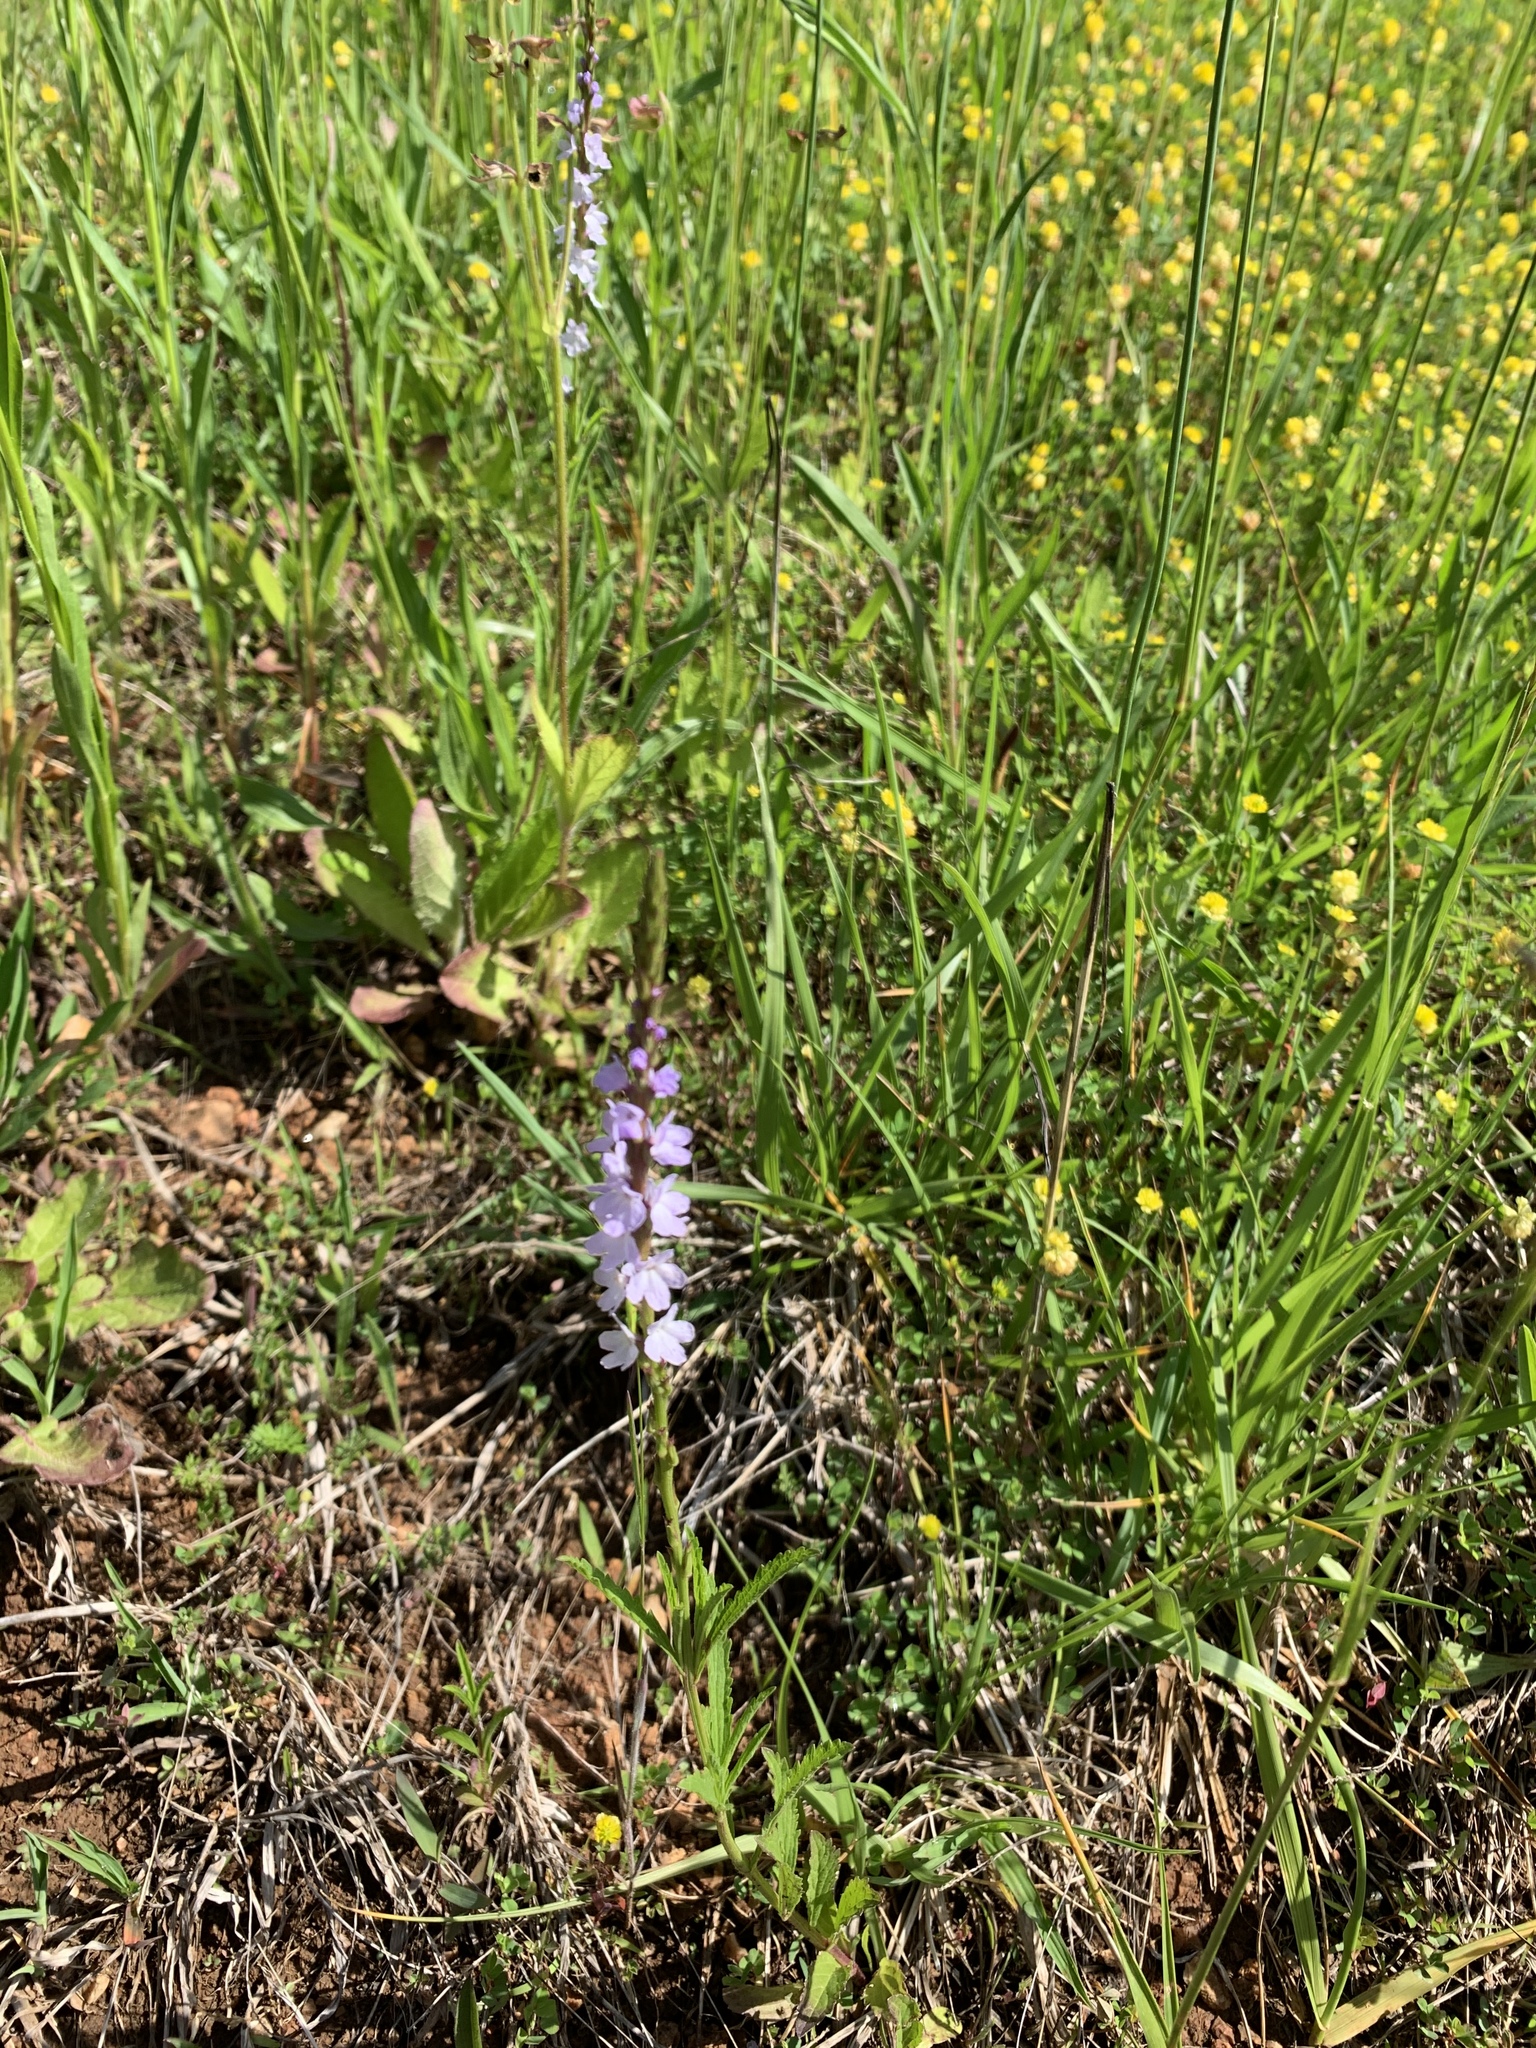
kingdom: Plantae
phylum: Tracheophyta
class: Magnoliopsida
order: Lamiales
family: Verbenaceae
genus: Verbena
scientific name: Verbena simplex
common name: Narrow-leaf vervain
